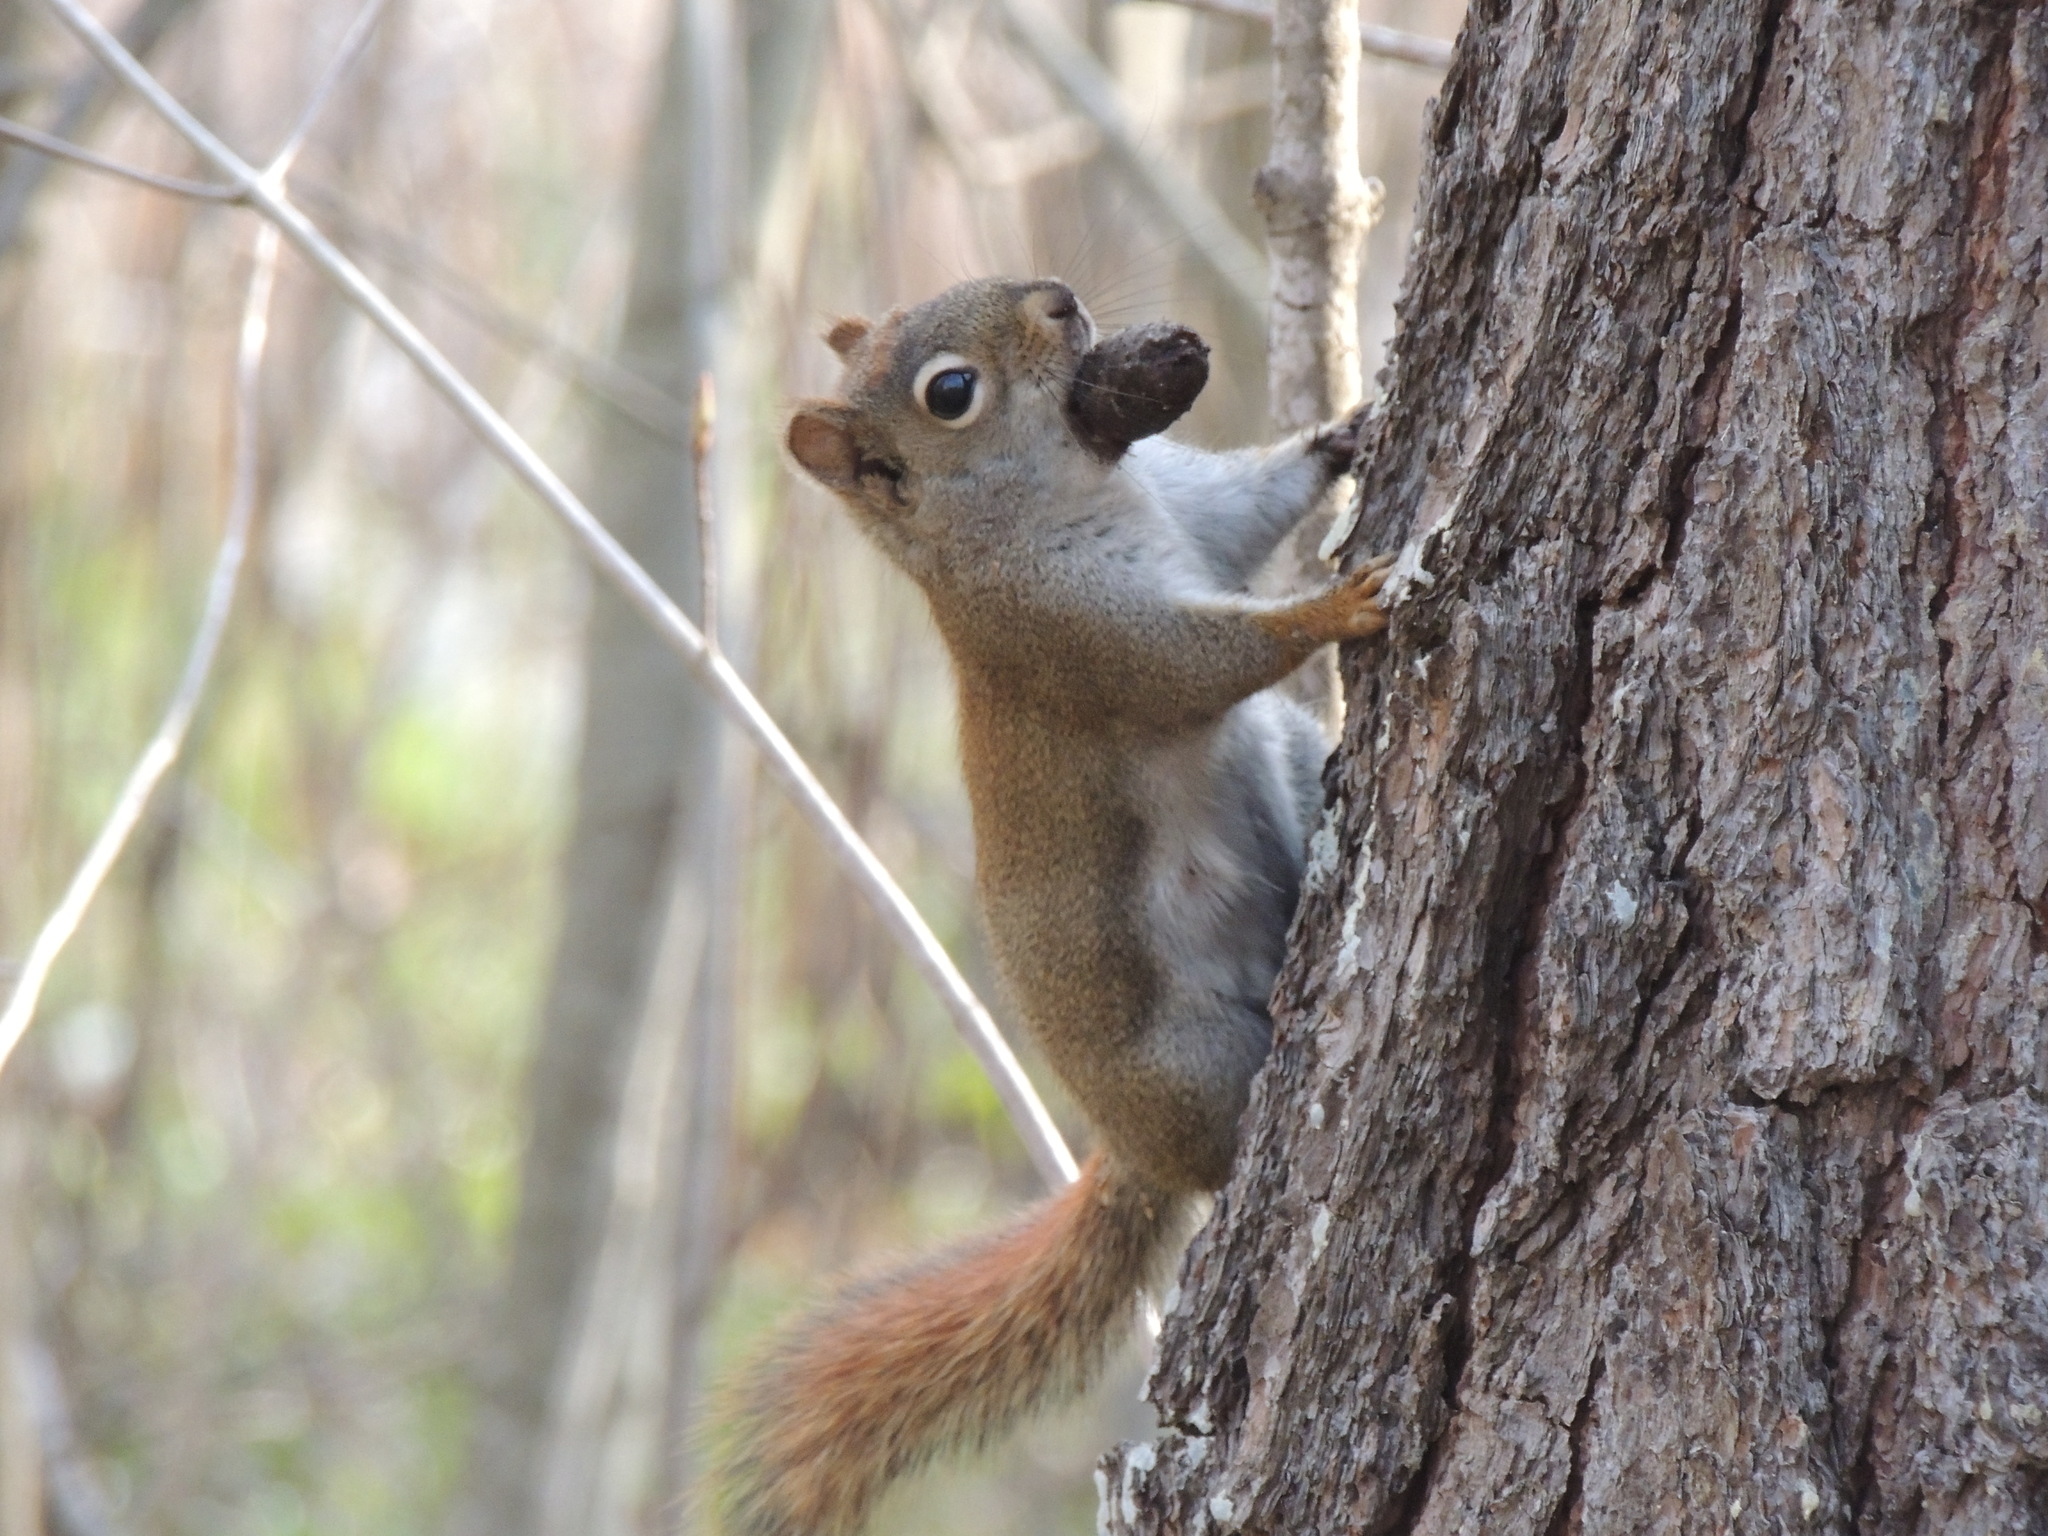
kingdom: Animalia
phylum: Chordata
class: Mammalia
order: Rodentia
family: Sciuridae
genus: Tamiasciurus
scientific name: Tamiasciurus hudsonicus
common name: Red squirrel
